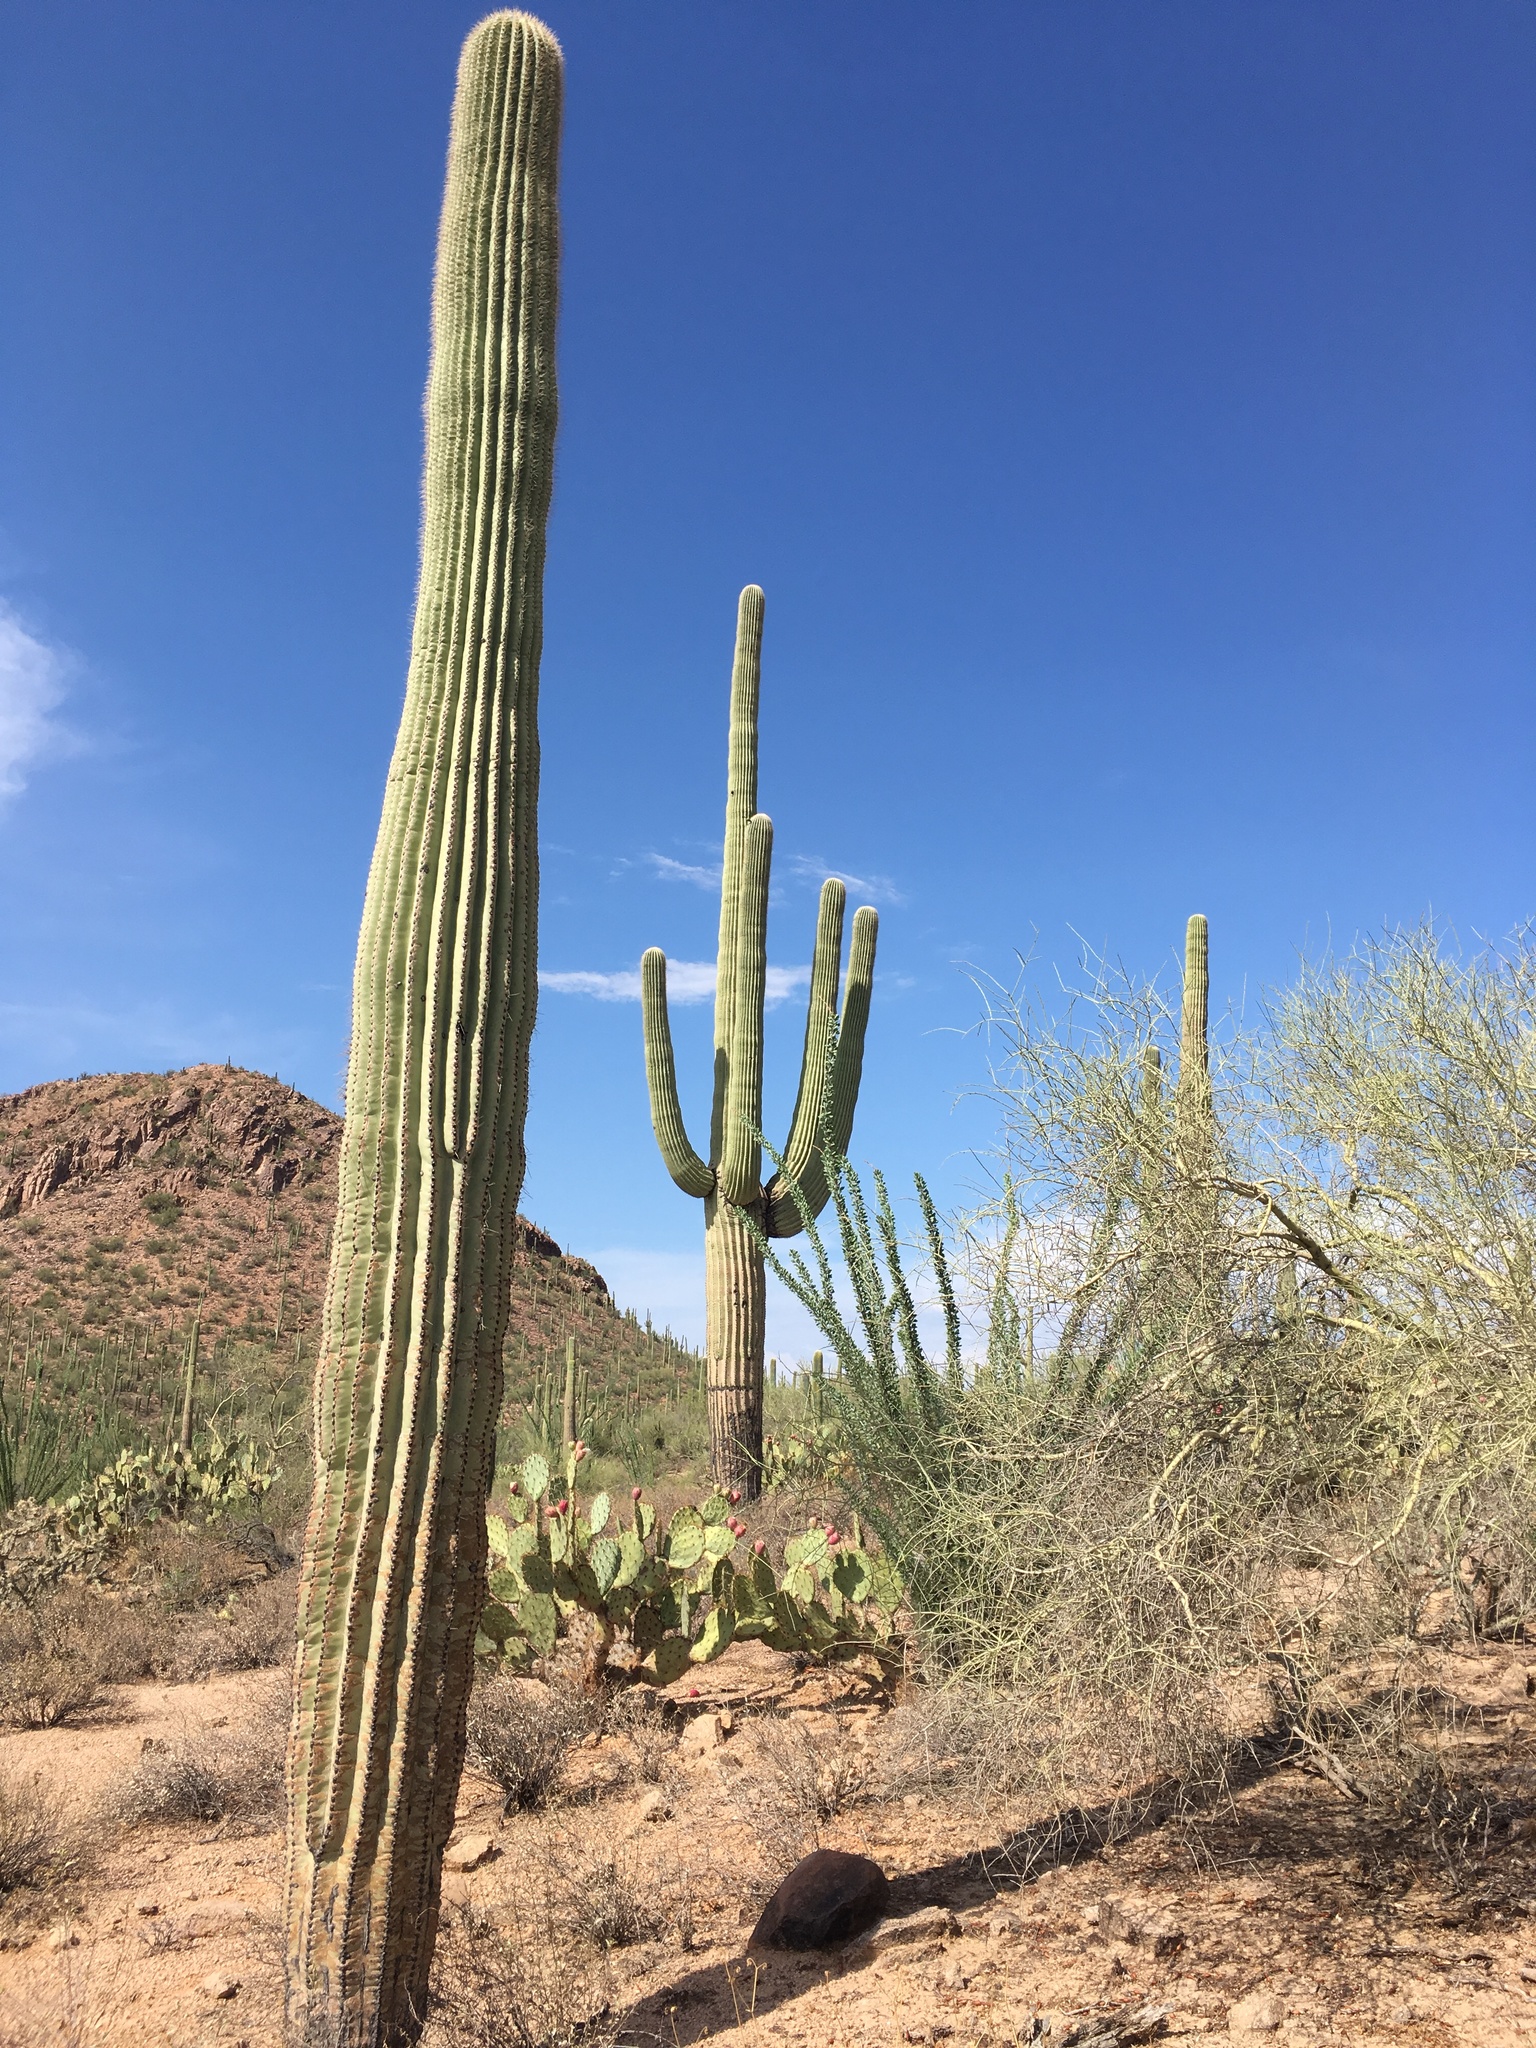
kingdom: Plantae
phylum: Tracheophyta
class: Magnoliopsida
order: Caryophyllales
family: Cactaceae
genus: Carnegiea
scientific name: Carnegiea gigantea
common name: Saguaro
